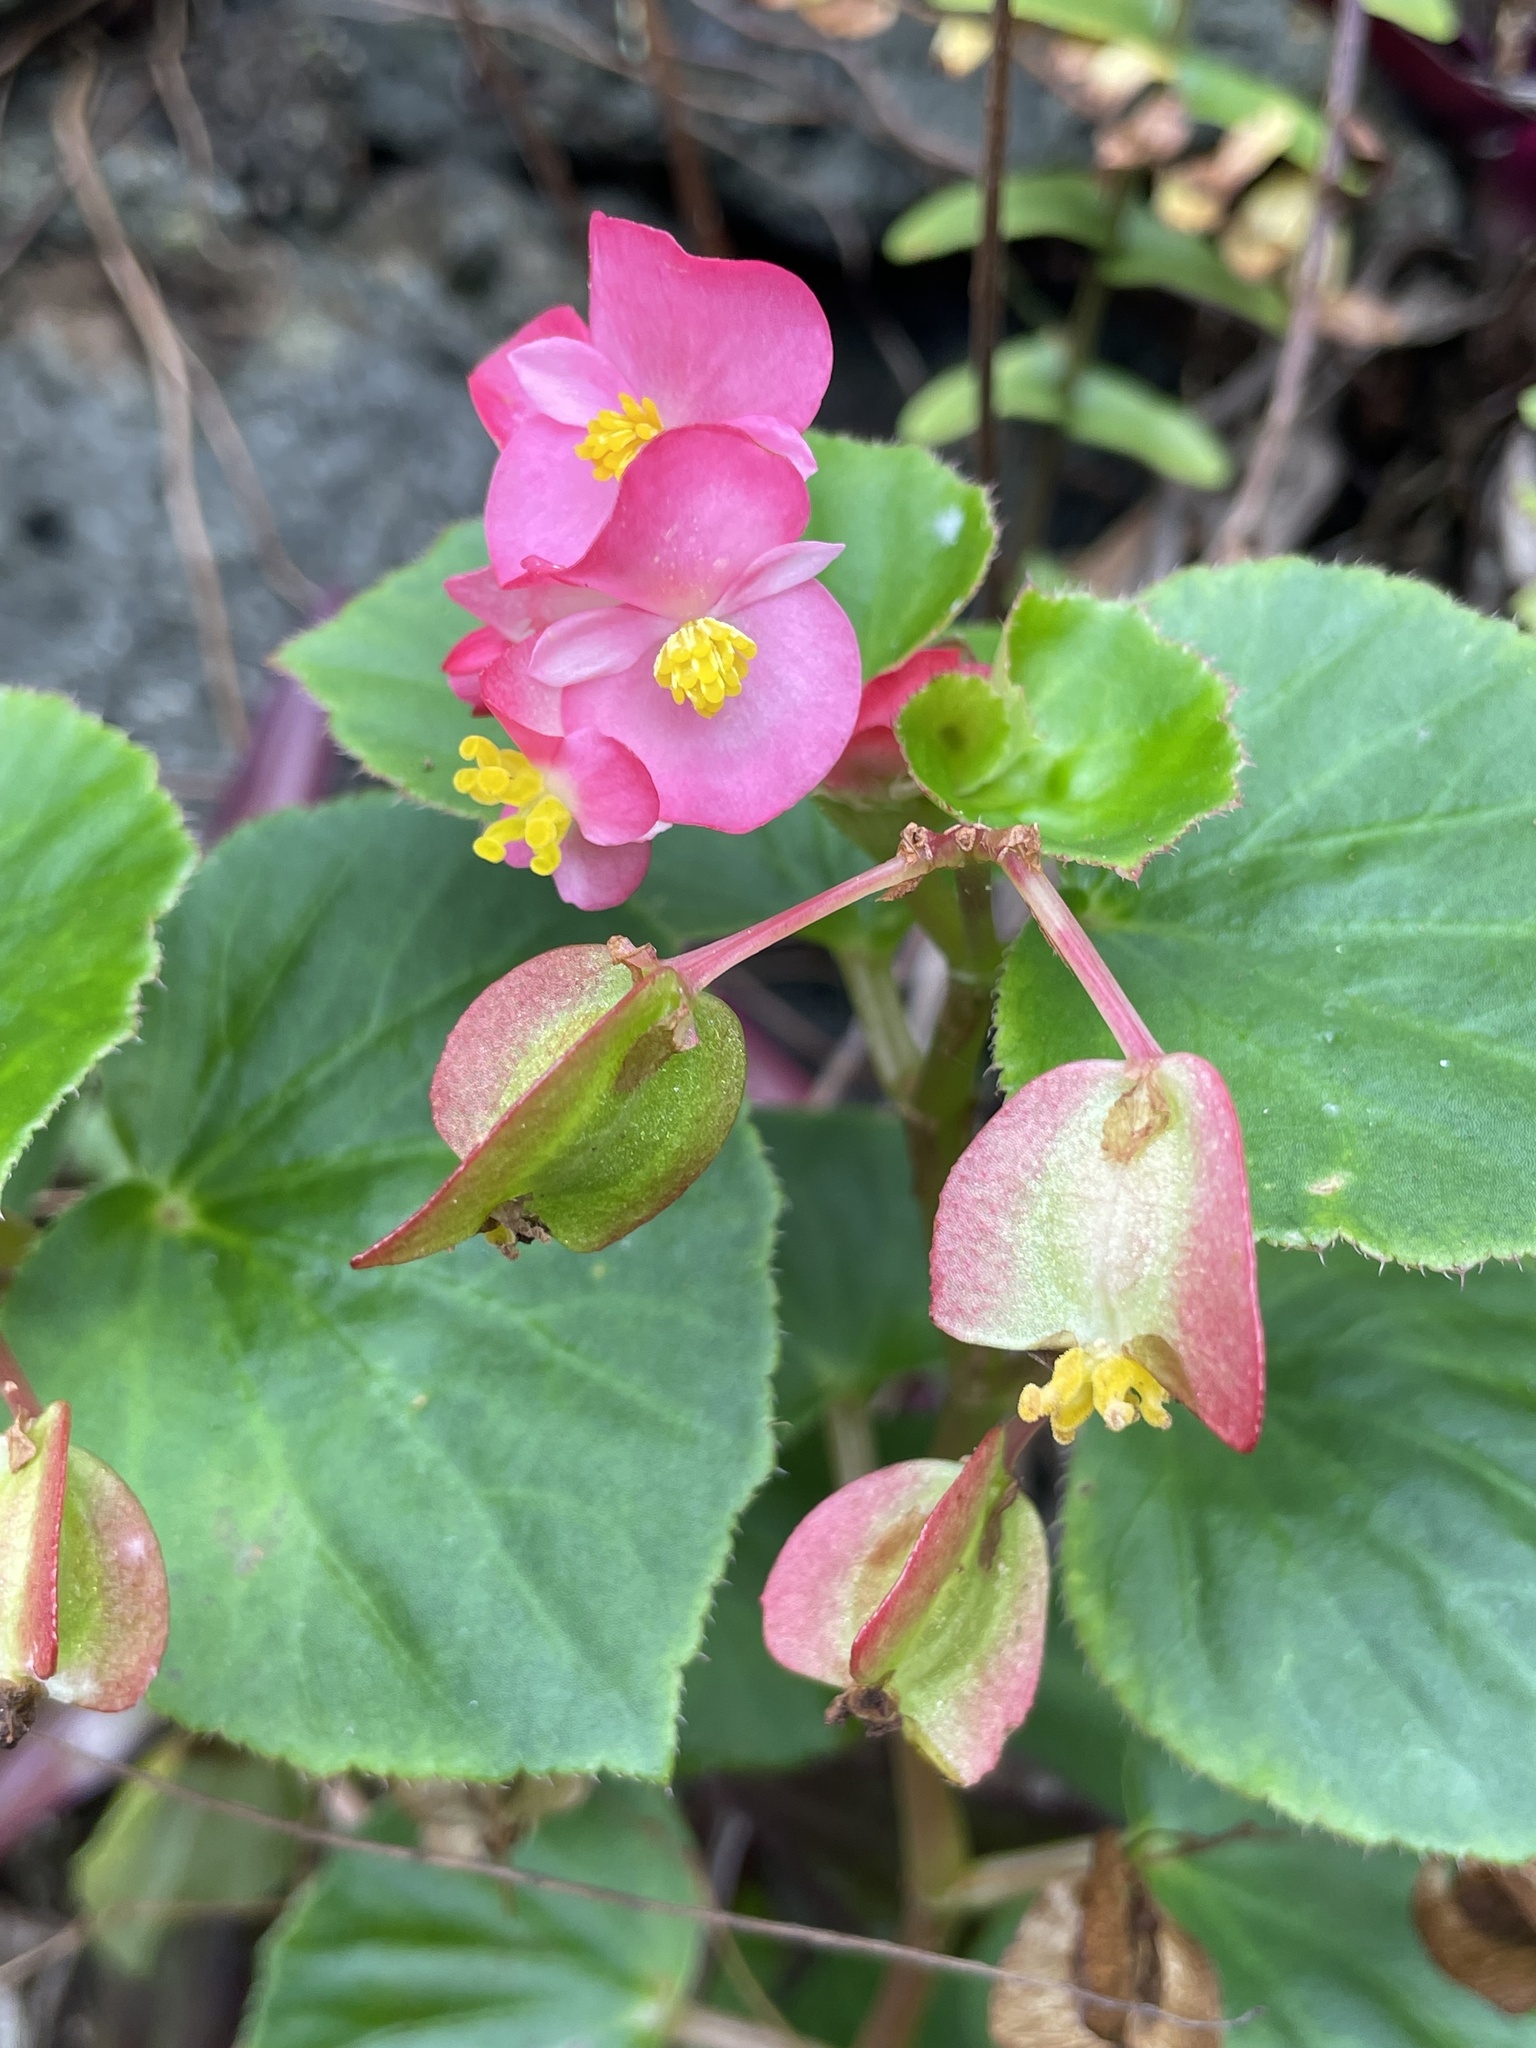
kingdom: Plantae
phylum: Tracheophyta
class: Magnoliopsida
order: Cucurbitales
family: Begoniaceae
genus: Begonia
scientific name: Begonia cucullata
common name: Clubbed begonia
